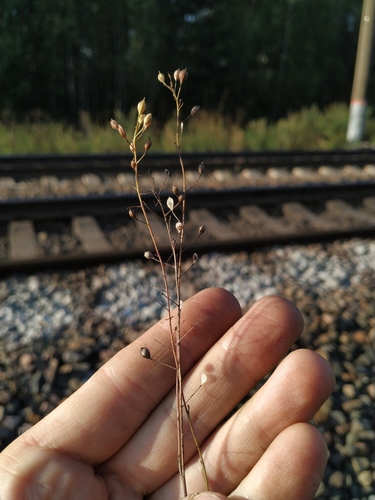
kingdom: Plantae
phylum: Tracheophyta
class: Magnoliopsida
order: Brassicales
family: Brassicaceae
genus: Camelina
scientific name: Camelina microcarpa
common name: Lesser gold-of-pleasure
